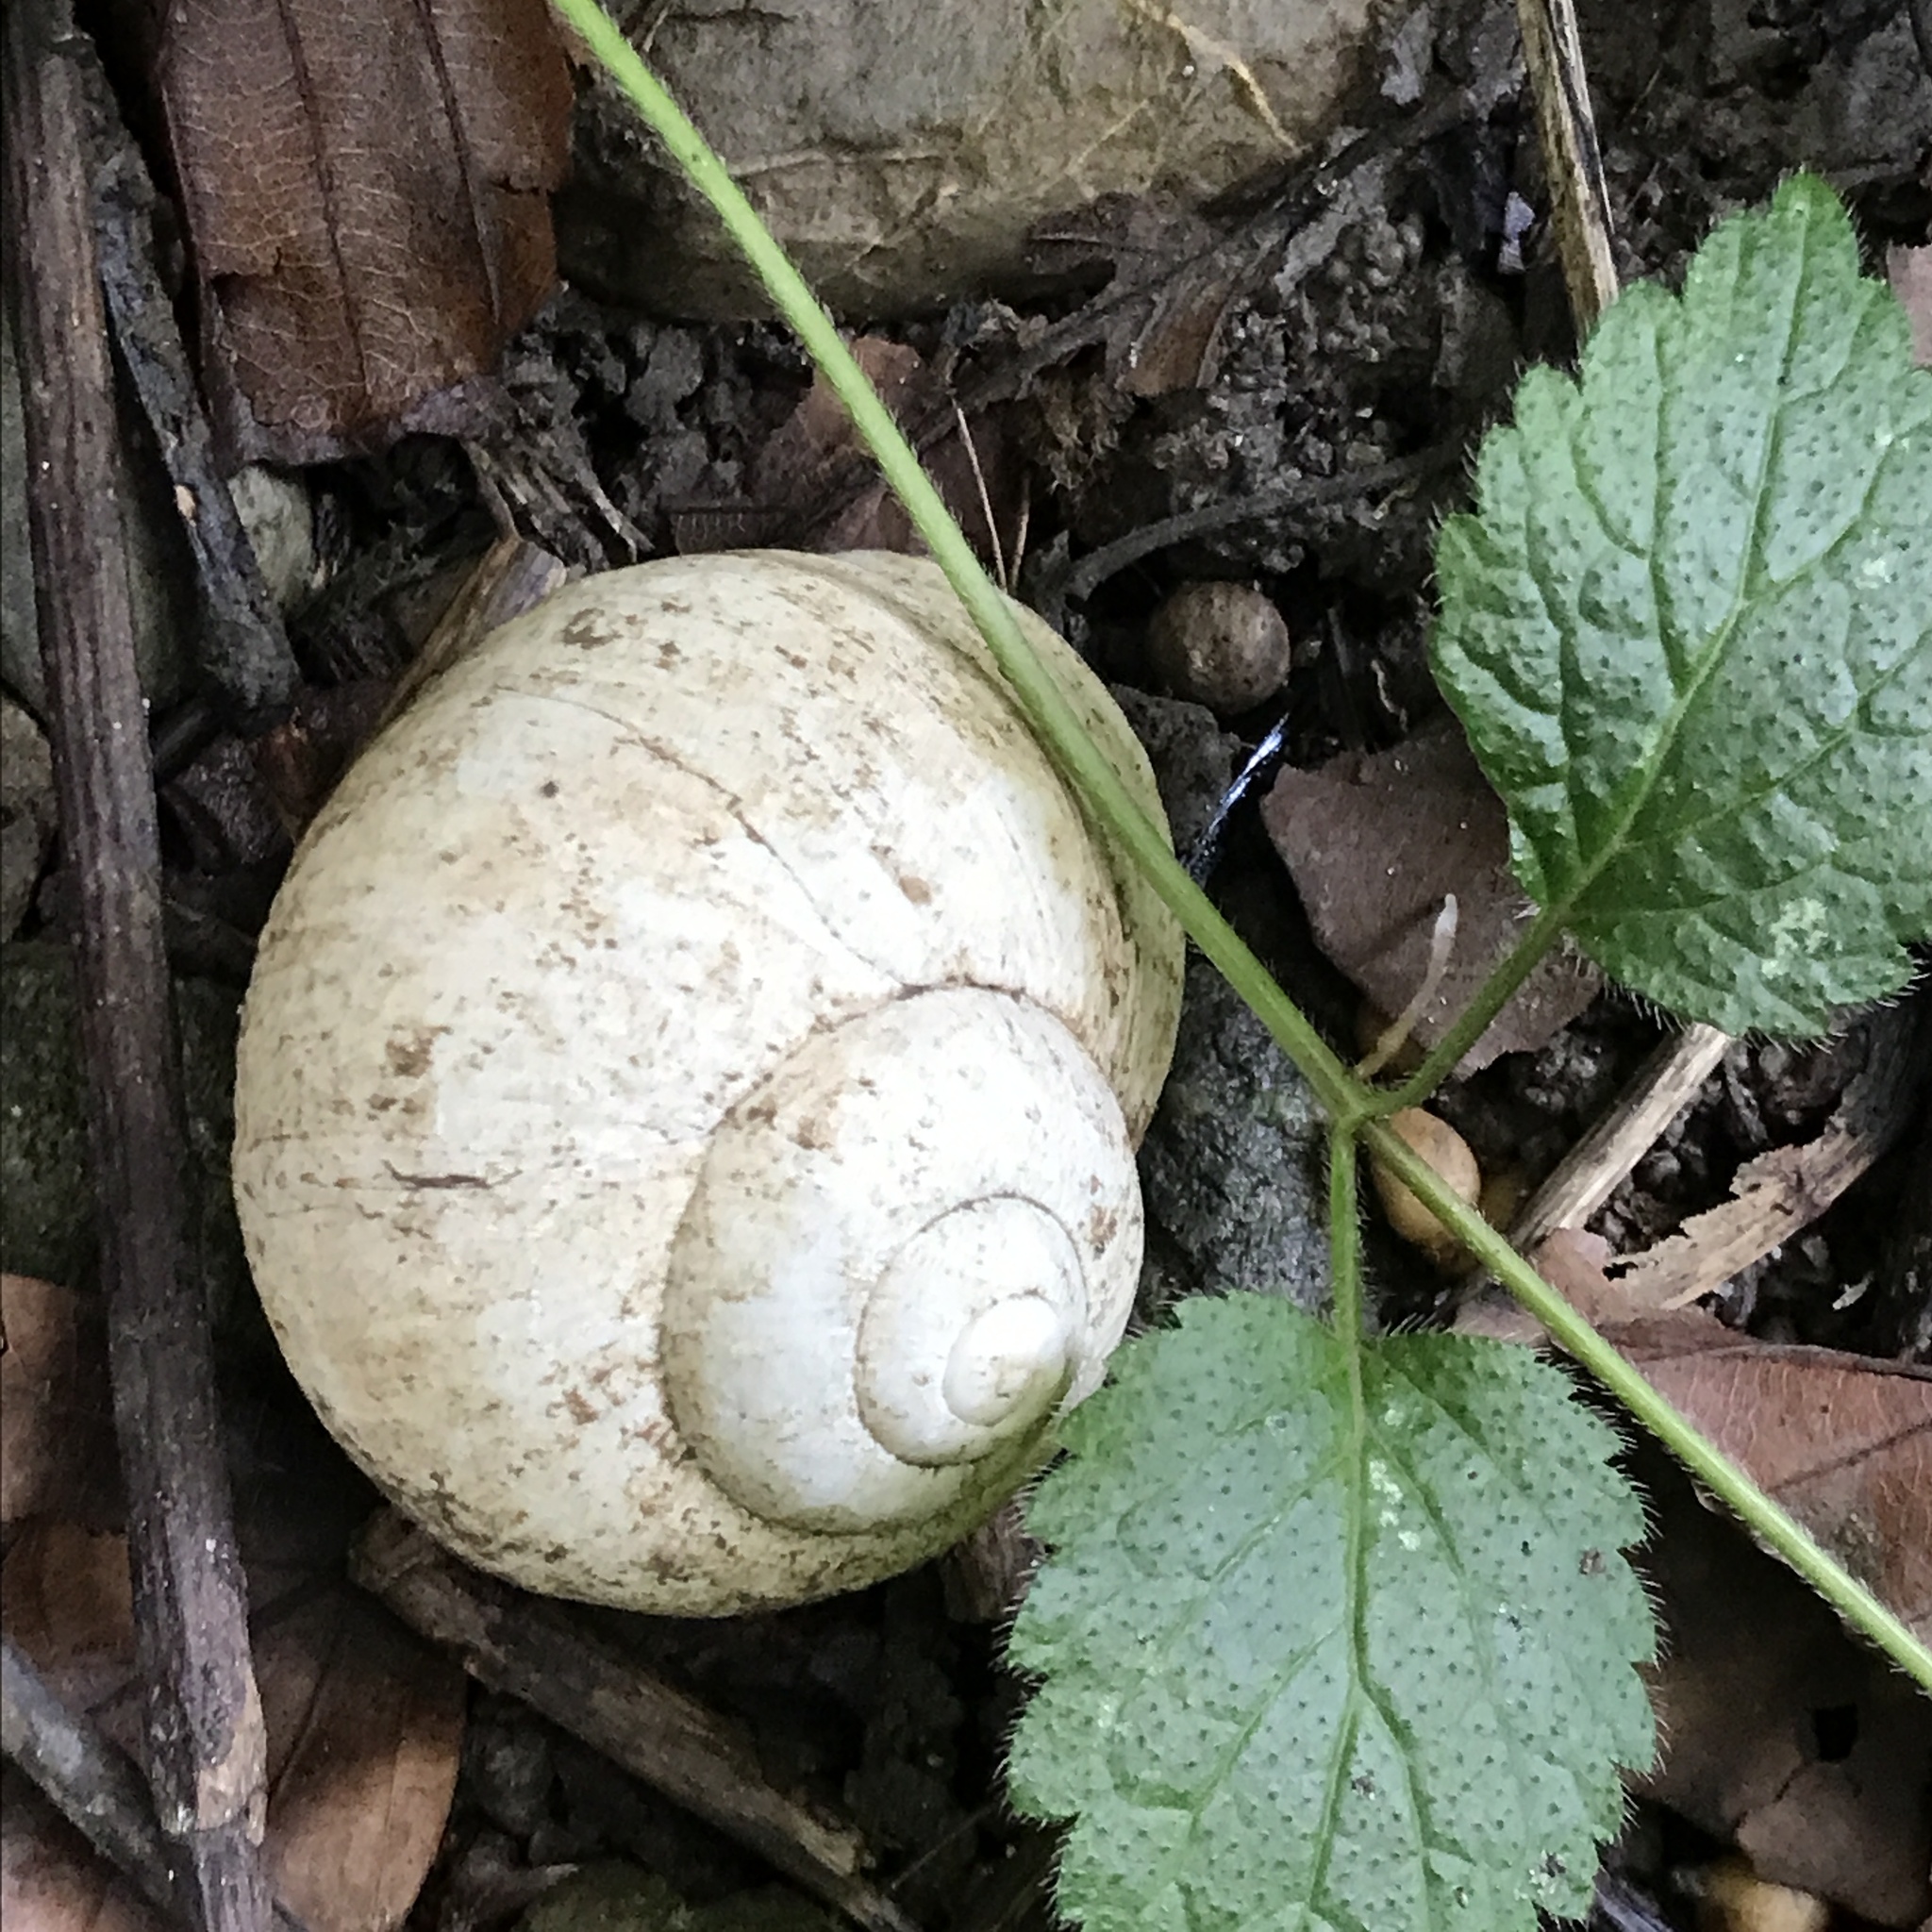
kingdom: Animalia
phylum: Mollusca
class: Gastropoda
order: Stylommatophora
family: Helicidae
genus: Helix
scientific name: Helix pomatia
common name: Roman snail
